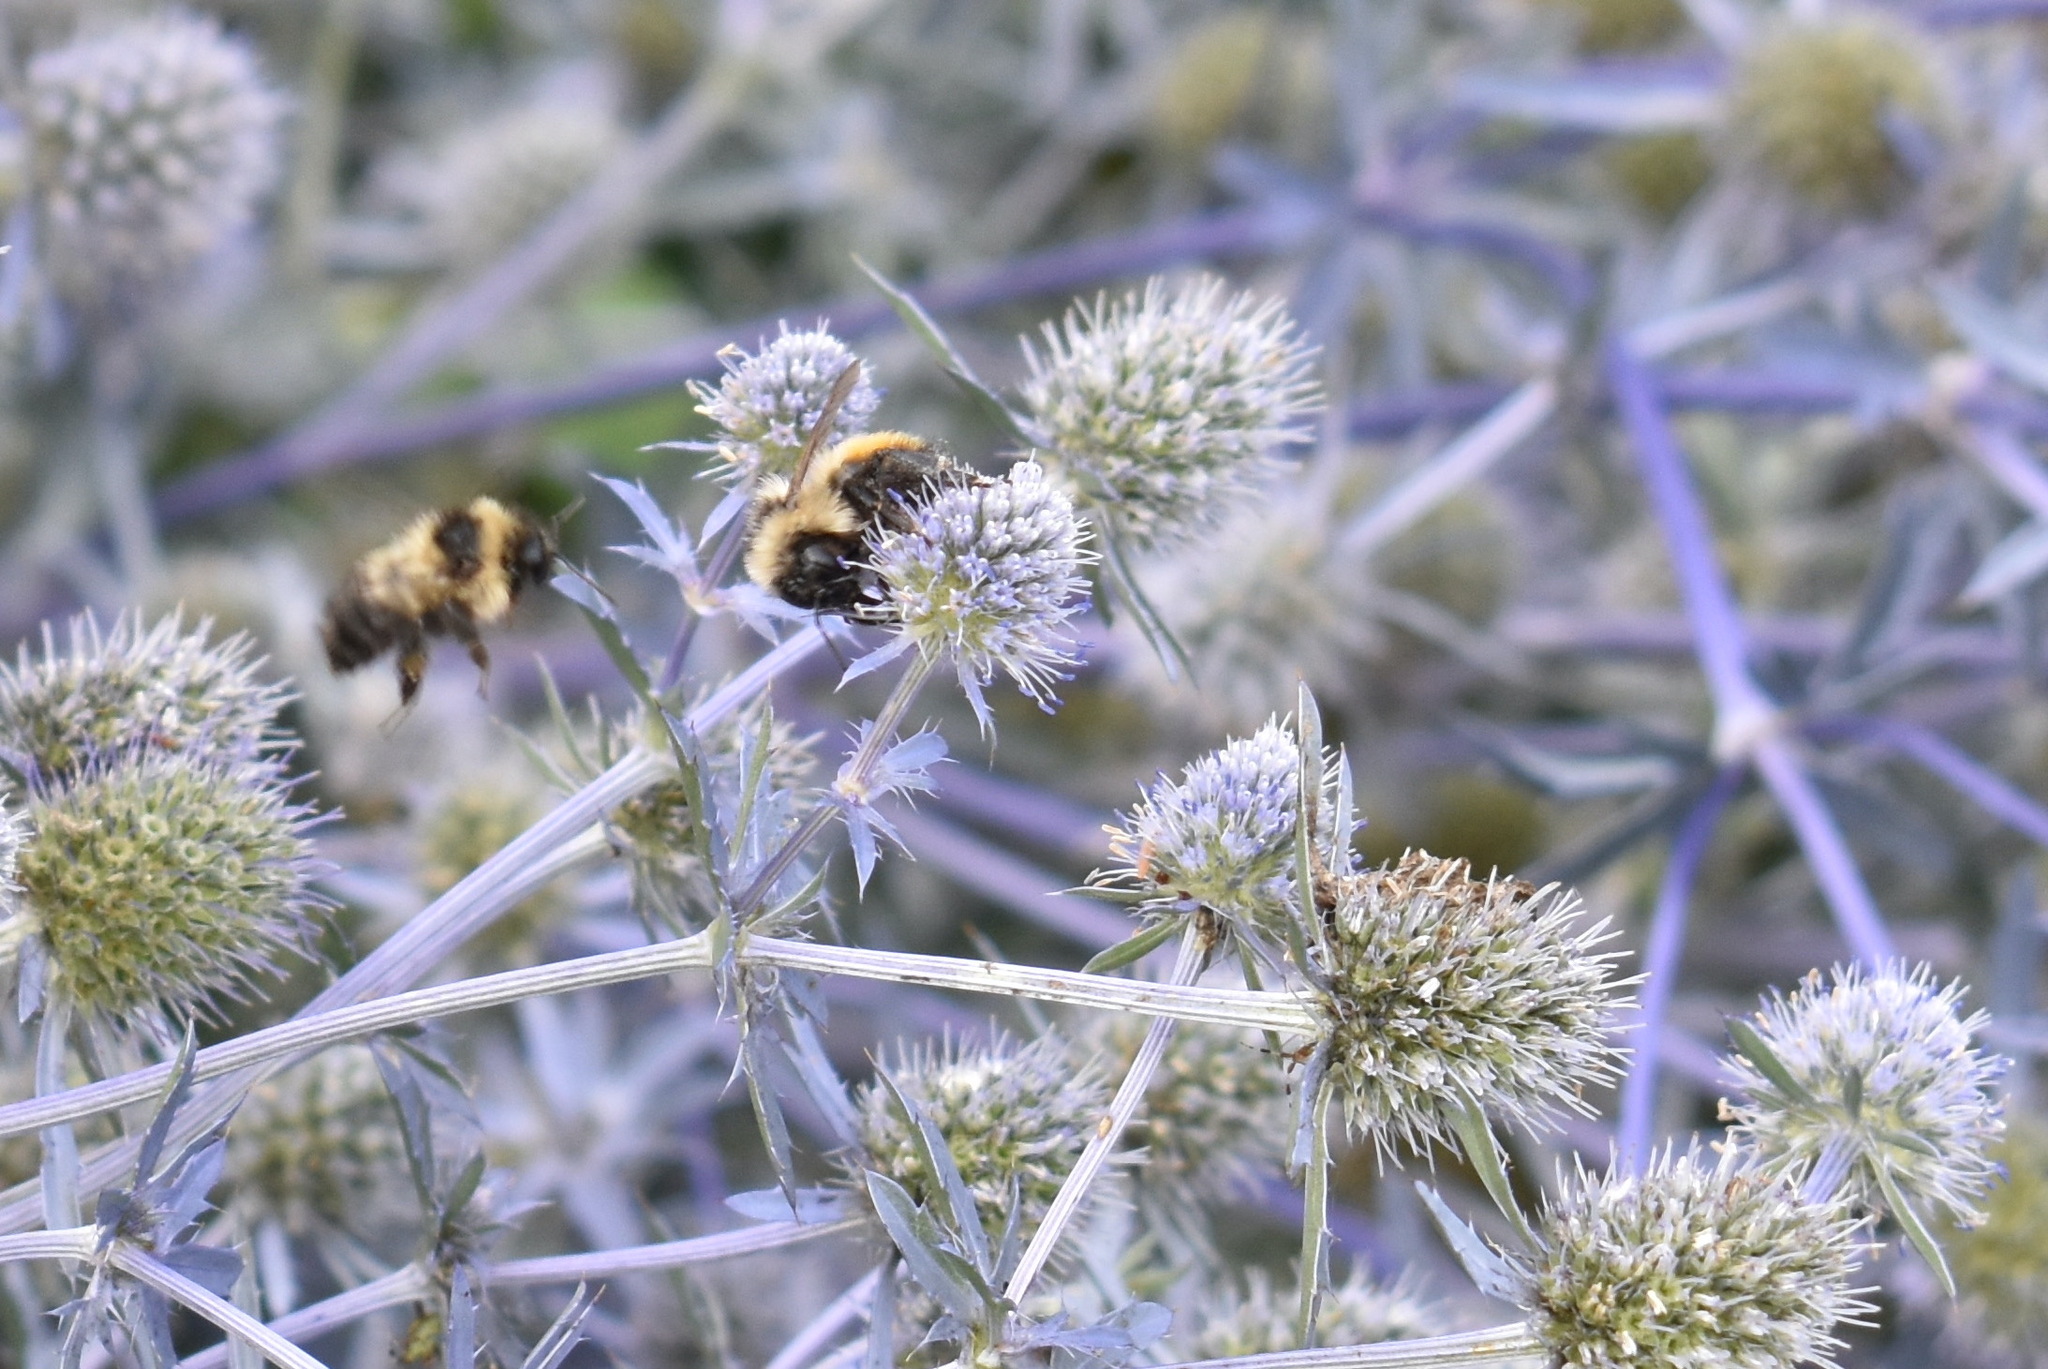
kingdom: Animalia
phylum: Arthropoda
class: Insecta
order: Hymenoptera
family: Apidae
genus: Bombus
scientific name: Bombus rufocinctus
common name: Red-belted bumble bee
